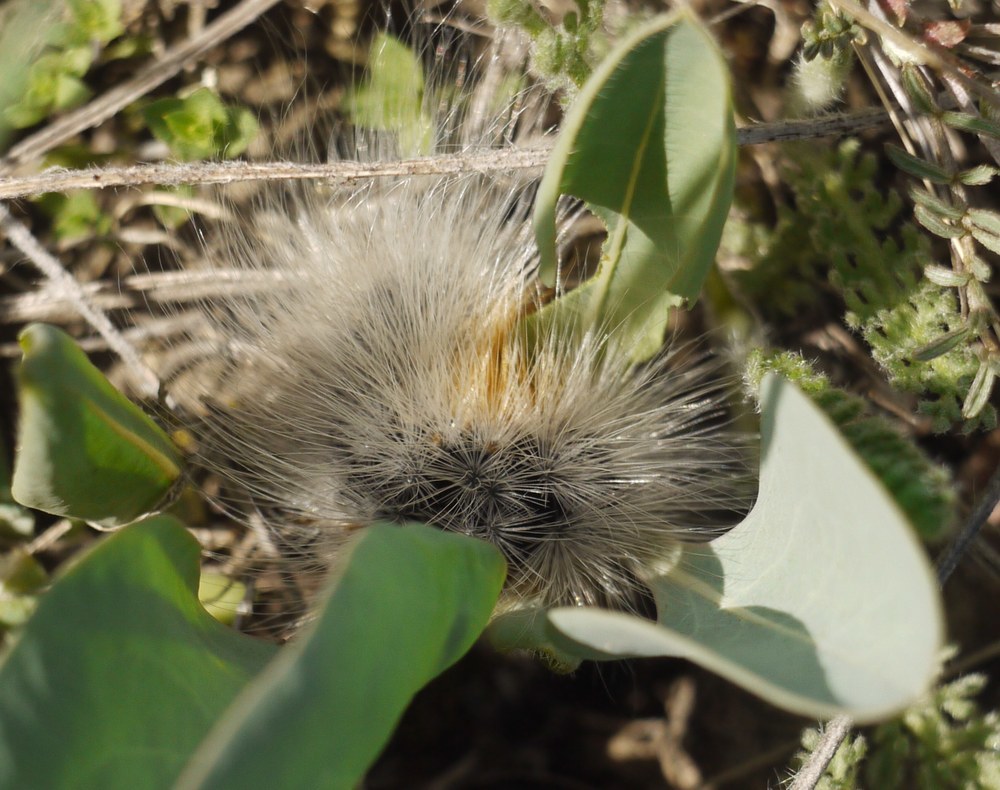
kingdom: Animalia
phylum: Arthropoda
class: Insecta
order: Lepidoptera
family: Erebidae
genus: Eucharia
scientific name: Eucharia festiva
